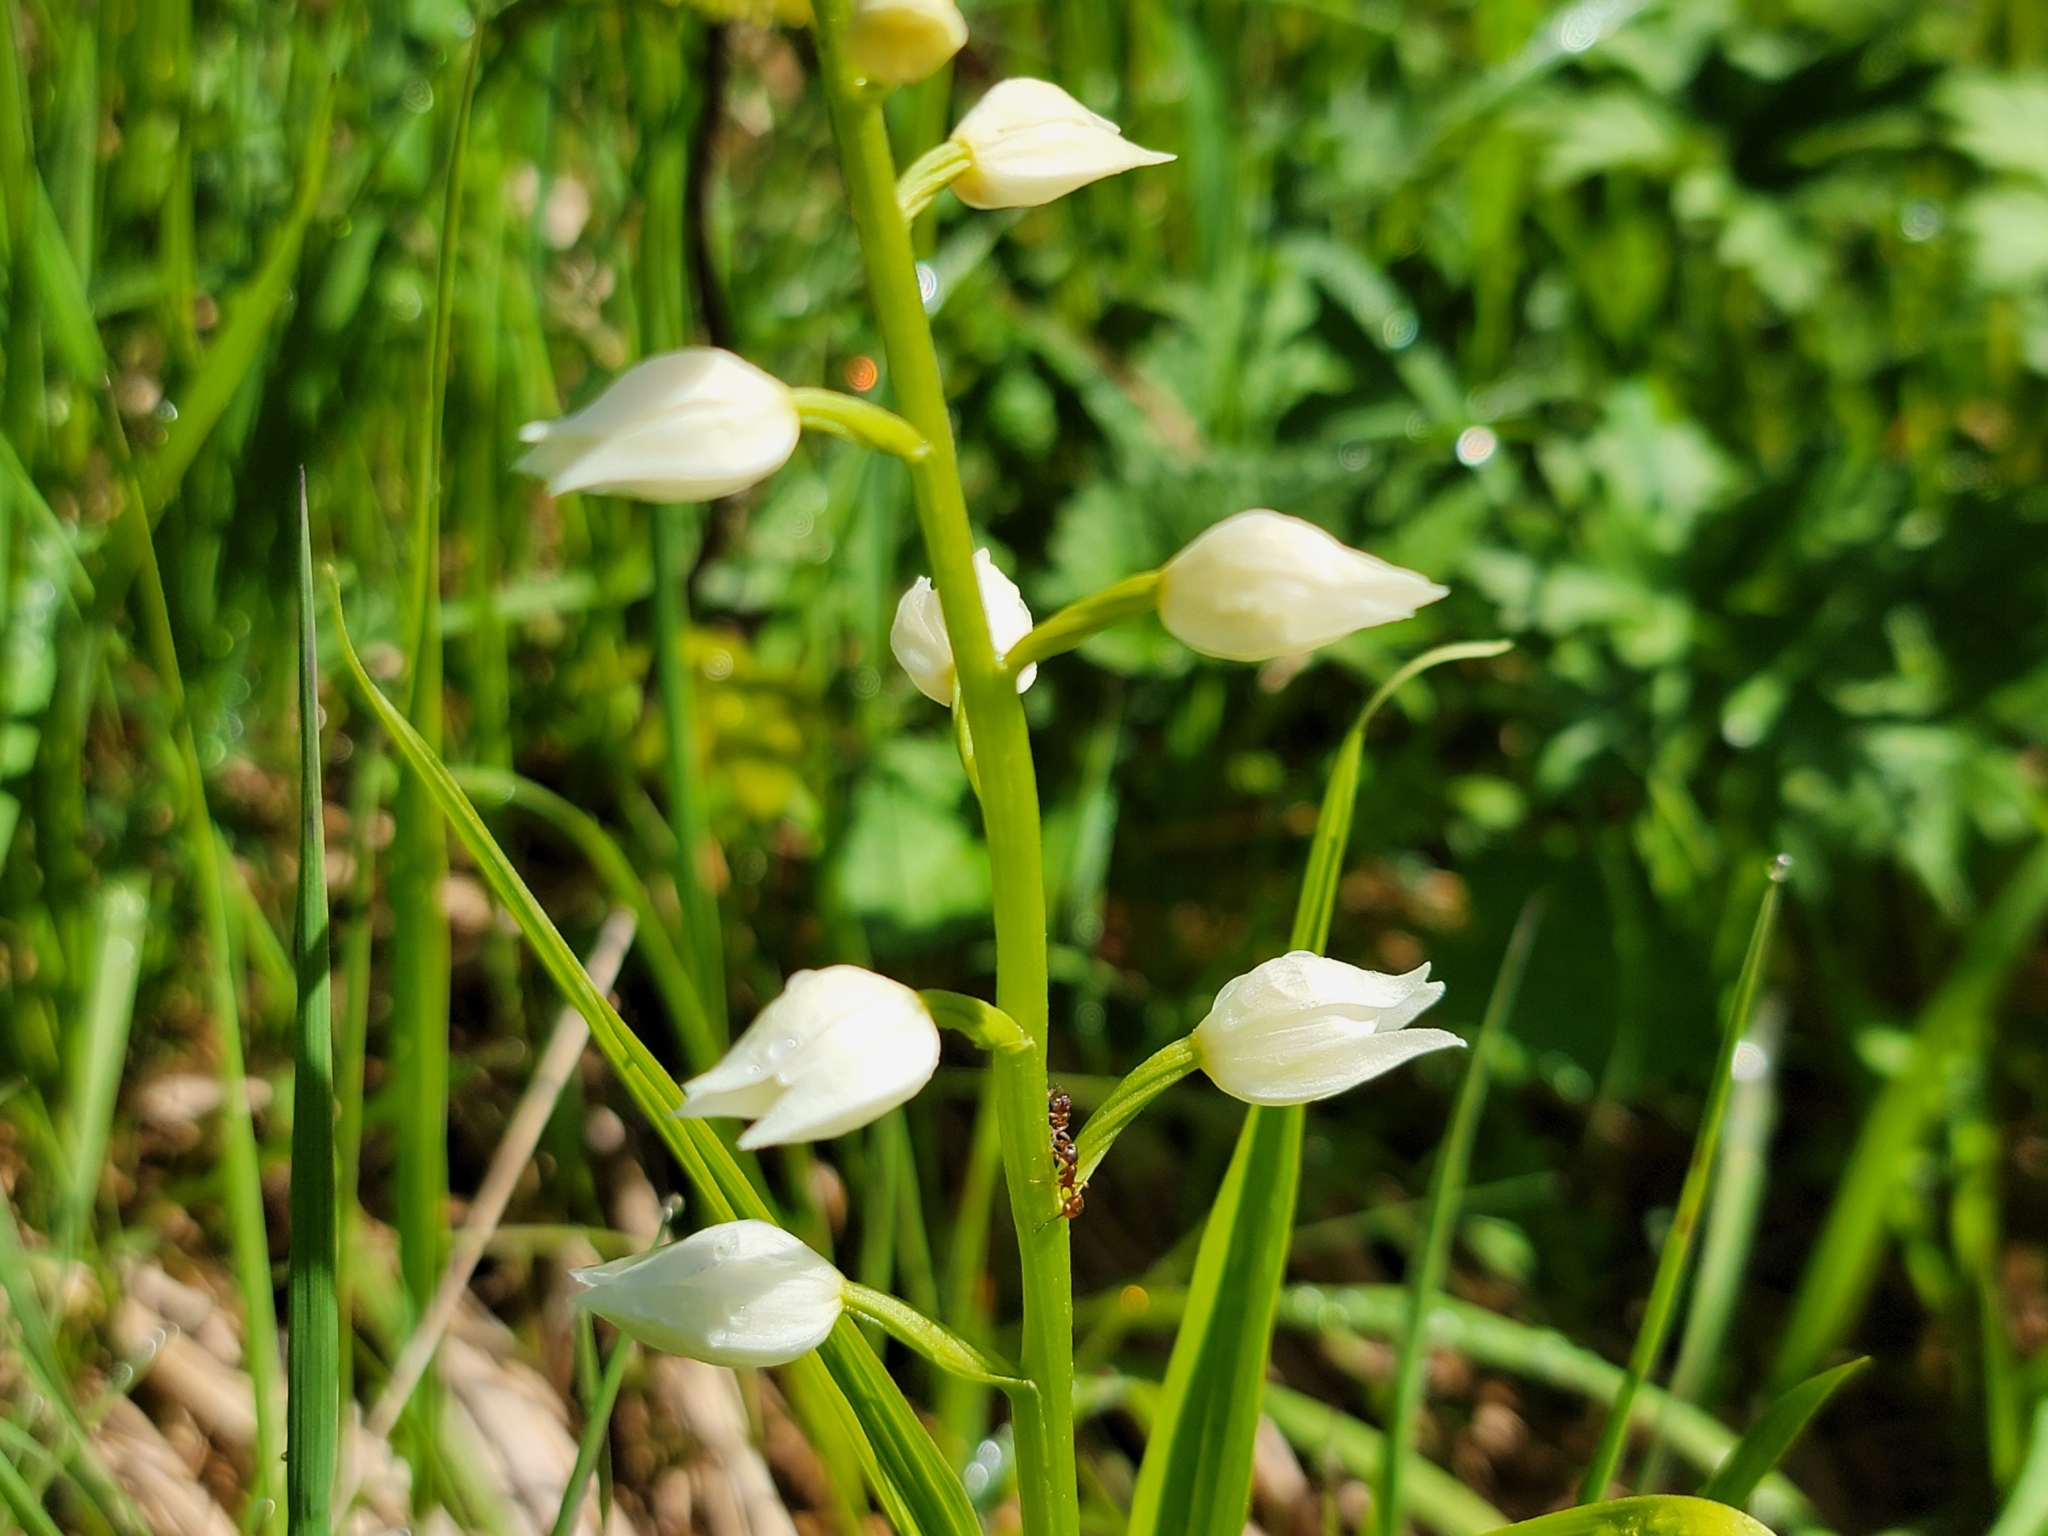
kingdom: Plantae
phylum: Tracheophyta
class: Liliopsida
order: Asparagales
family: Orchidaceae
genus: Cephalanthera
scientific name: Cephalanthera longifolia
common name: Narrow-leaved helleborine
